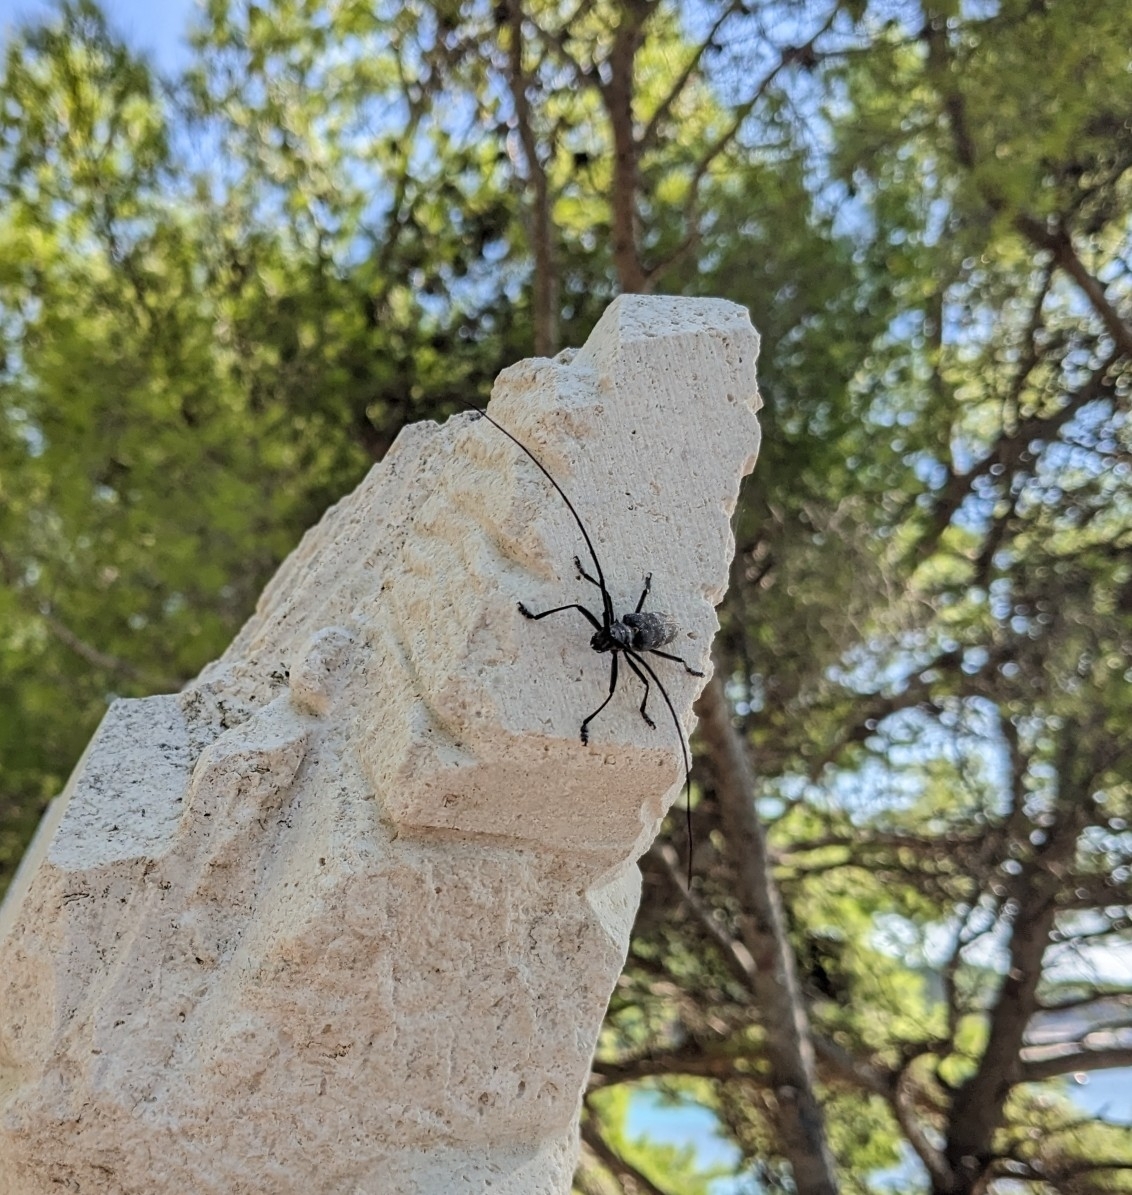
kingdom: Animalia
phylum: Arthropoda
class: Insecta
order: Coleoptera
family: Cerambycidae
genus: Monochamus
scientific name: Monochamus galloprovincialis
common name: Pine sawyer
